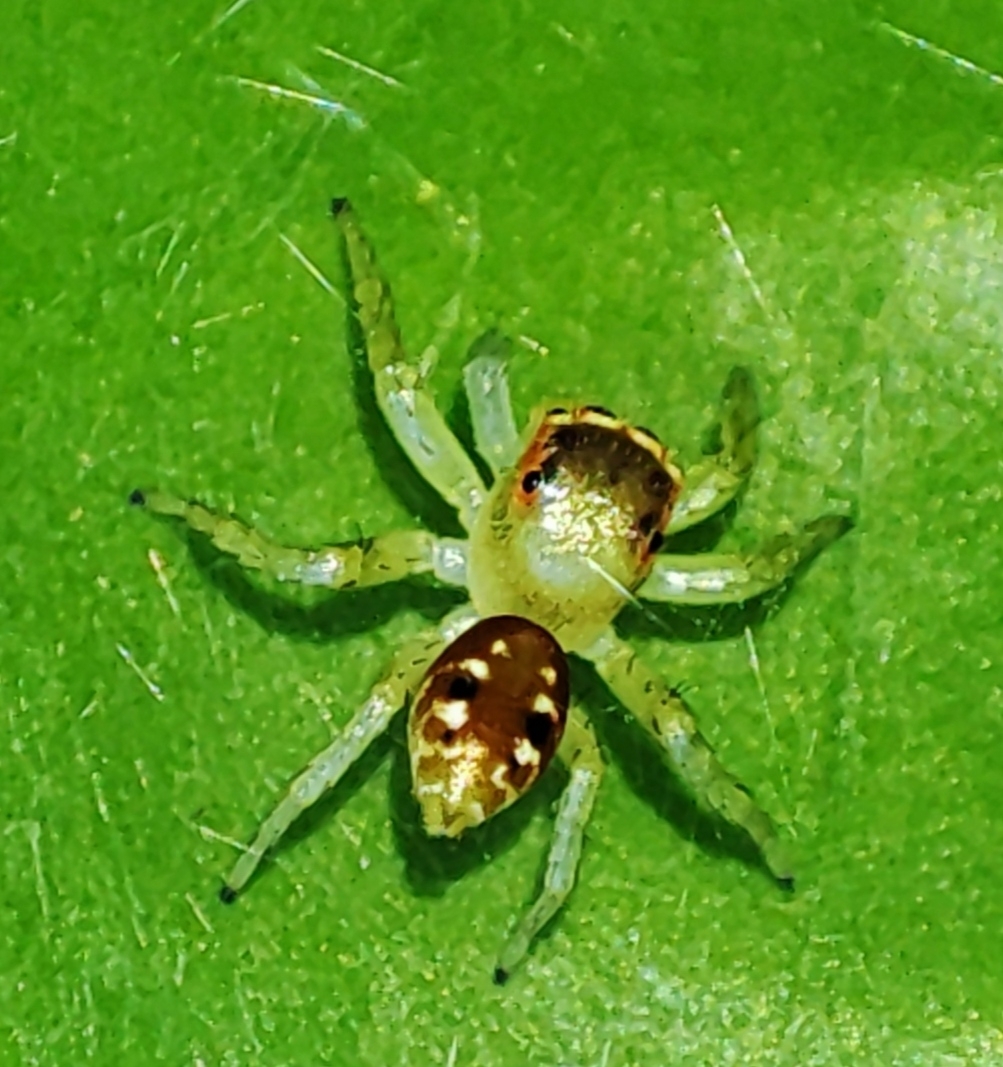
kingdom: Animalia
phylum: Arthropoda
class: Arachnida
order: Araneae
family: Salticidae
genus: Cytaea
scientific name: Cytaea dispalans
